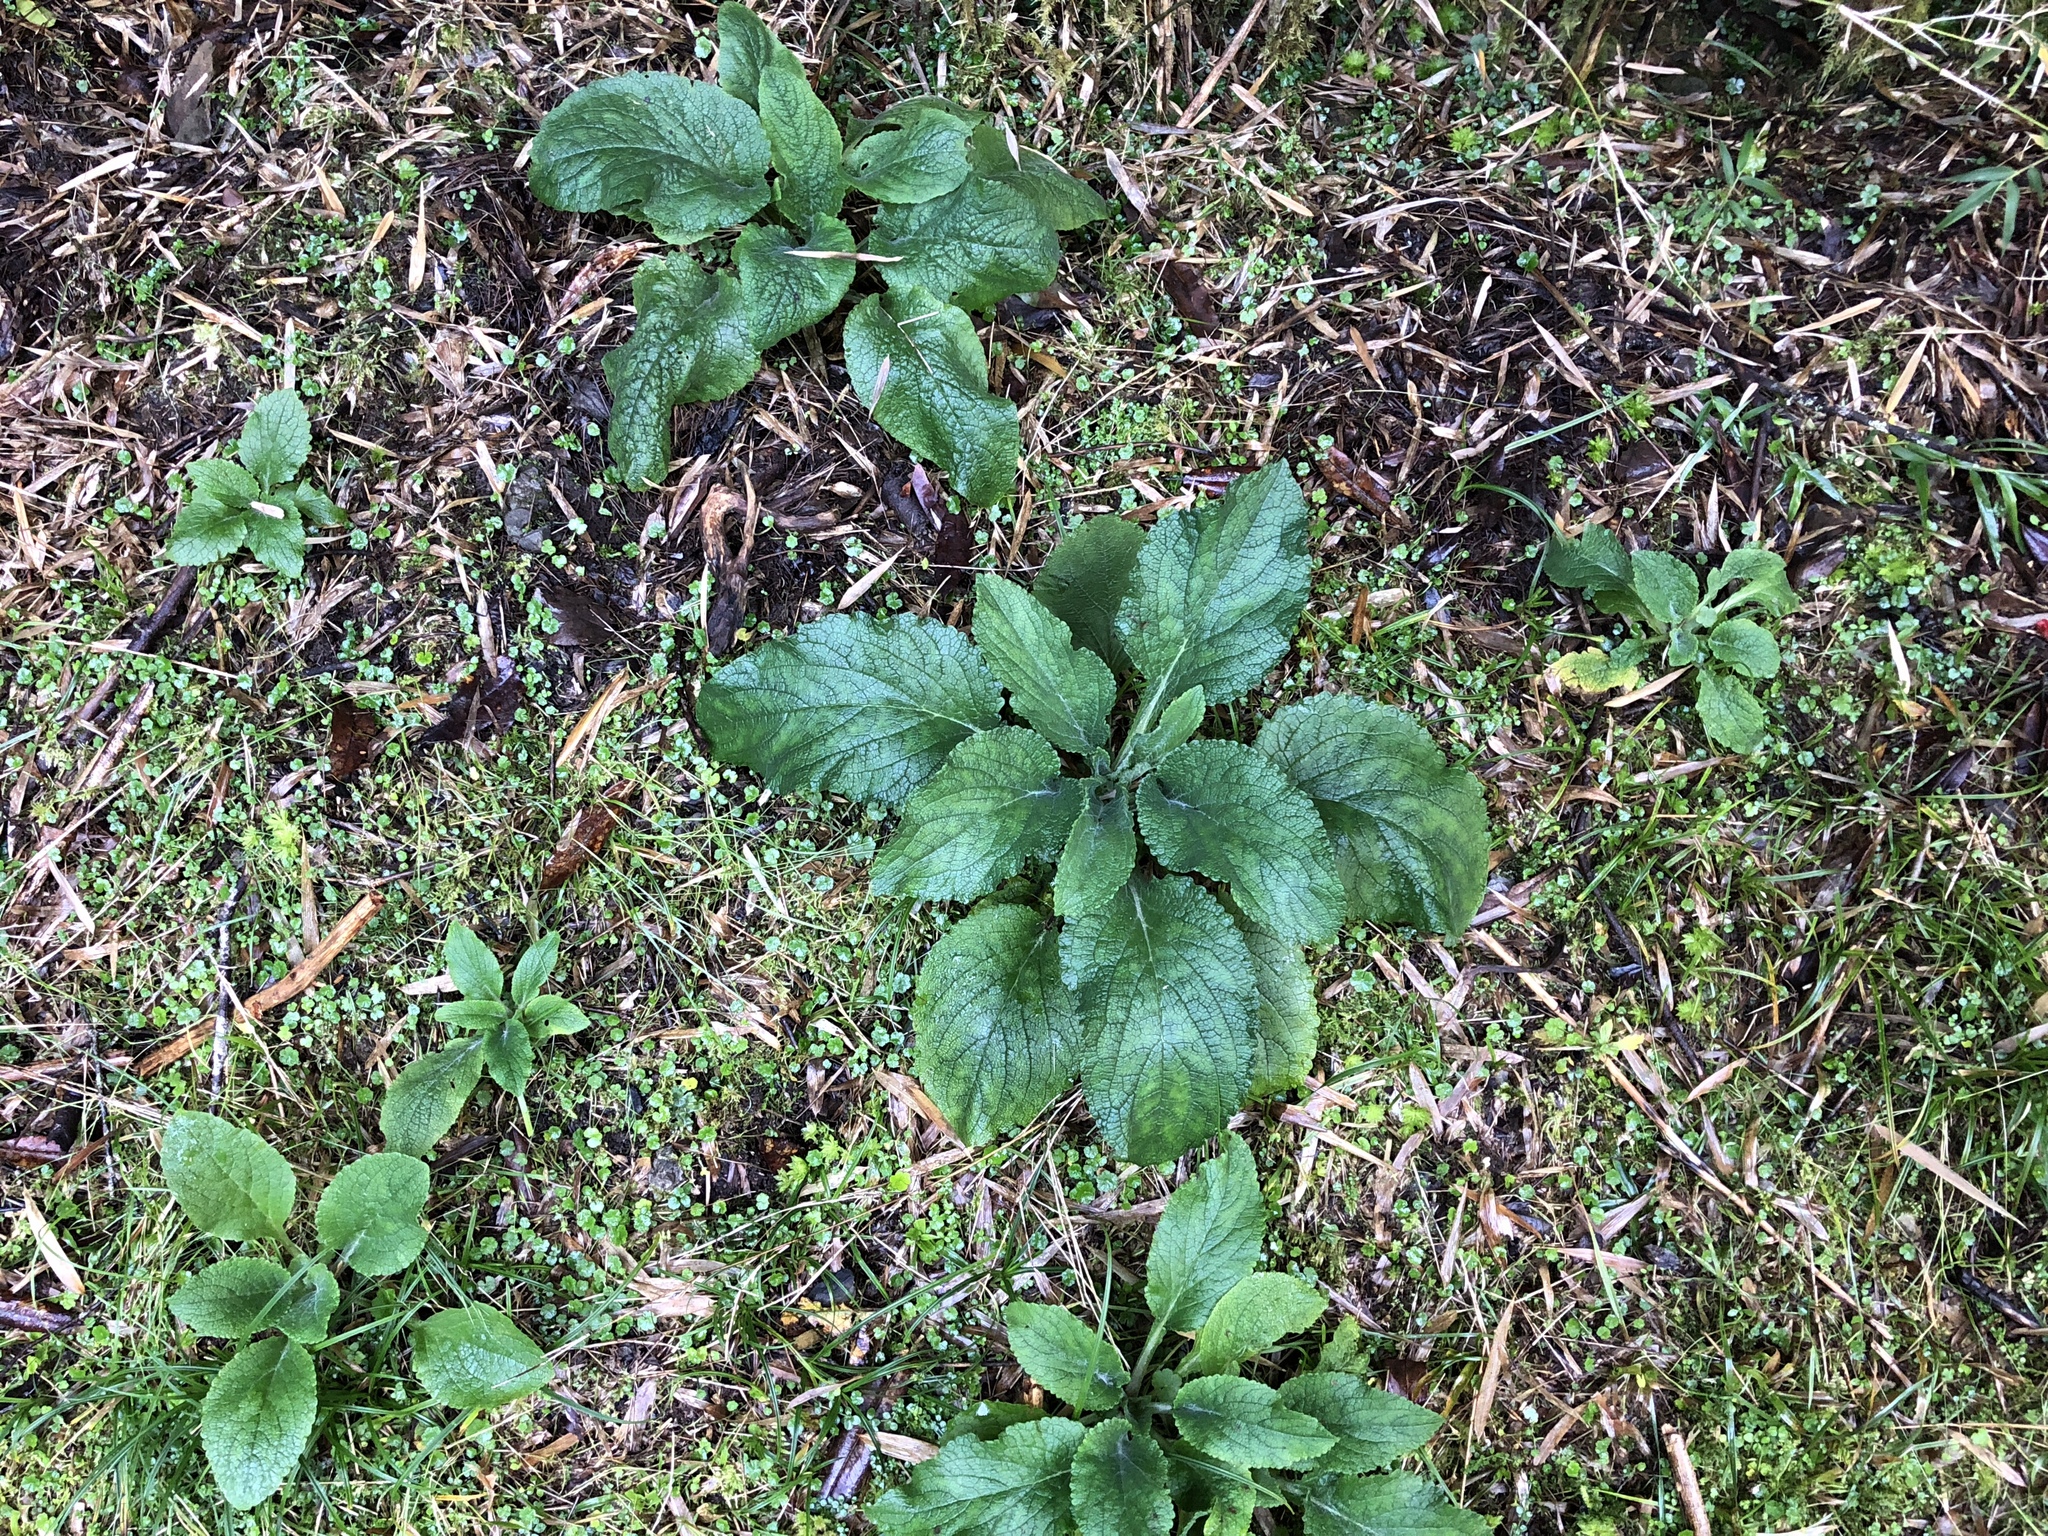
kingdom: Plantae
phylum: Tracheophyta
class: Magnoliopsida
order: Lamiales
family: Plantaginaceae
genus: Digitalis
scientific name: Digitalis purpurea
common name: Foxglove
